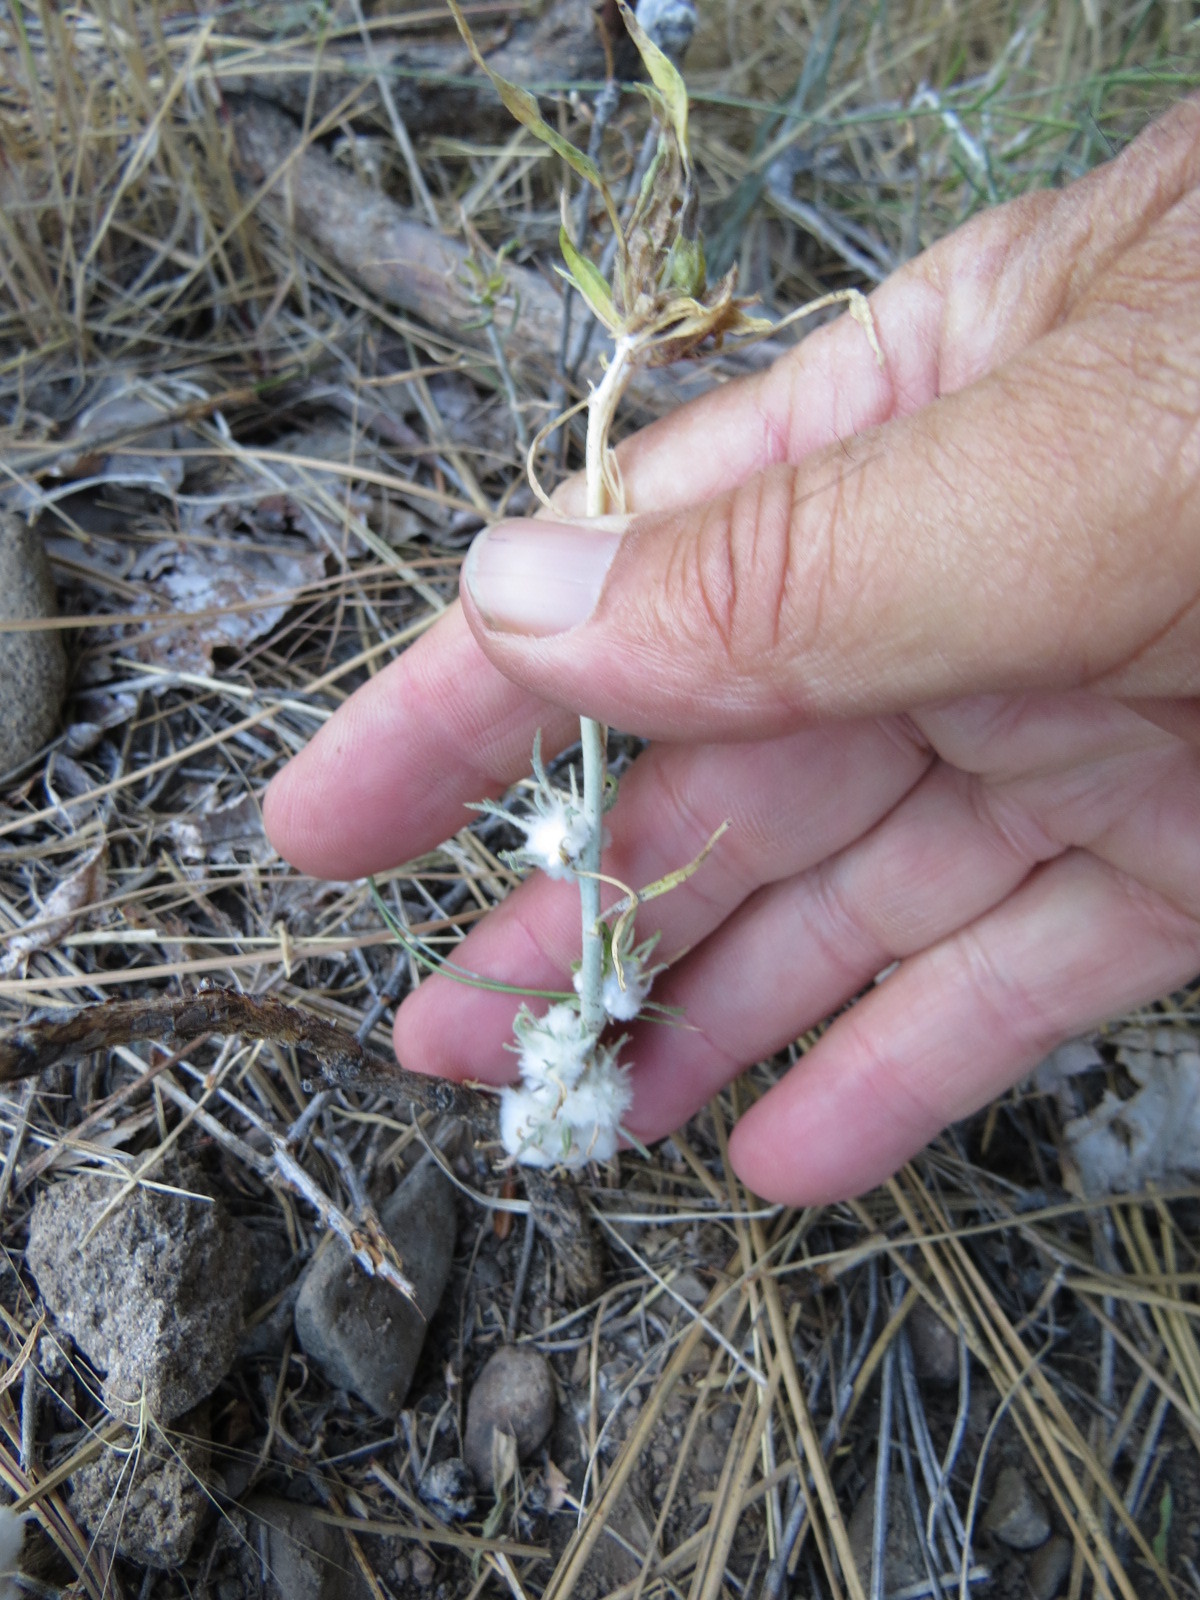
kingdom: Animalia
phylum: Arthropoda
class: Insecta
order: Diptera
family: Tephritidae
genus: Aciurina
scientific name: Aciurina bigeloviae
